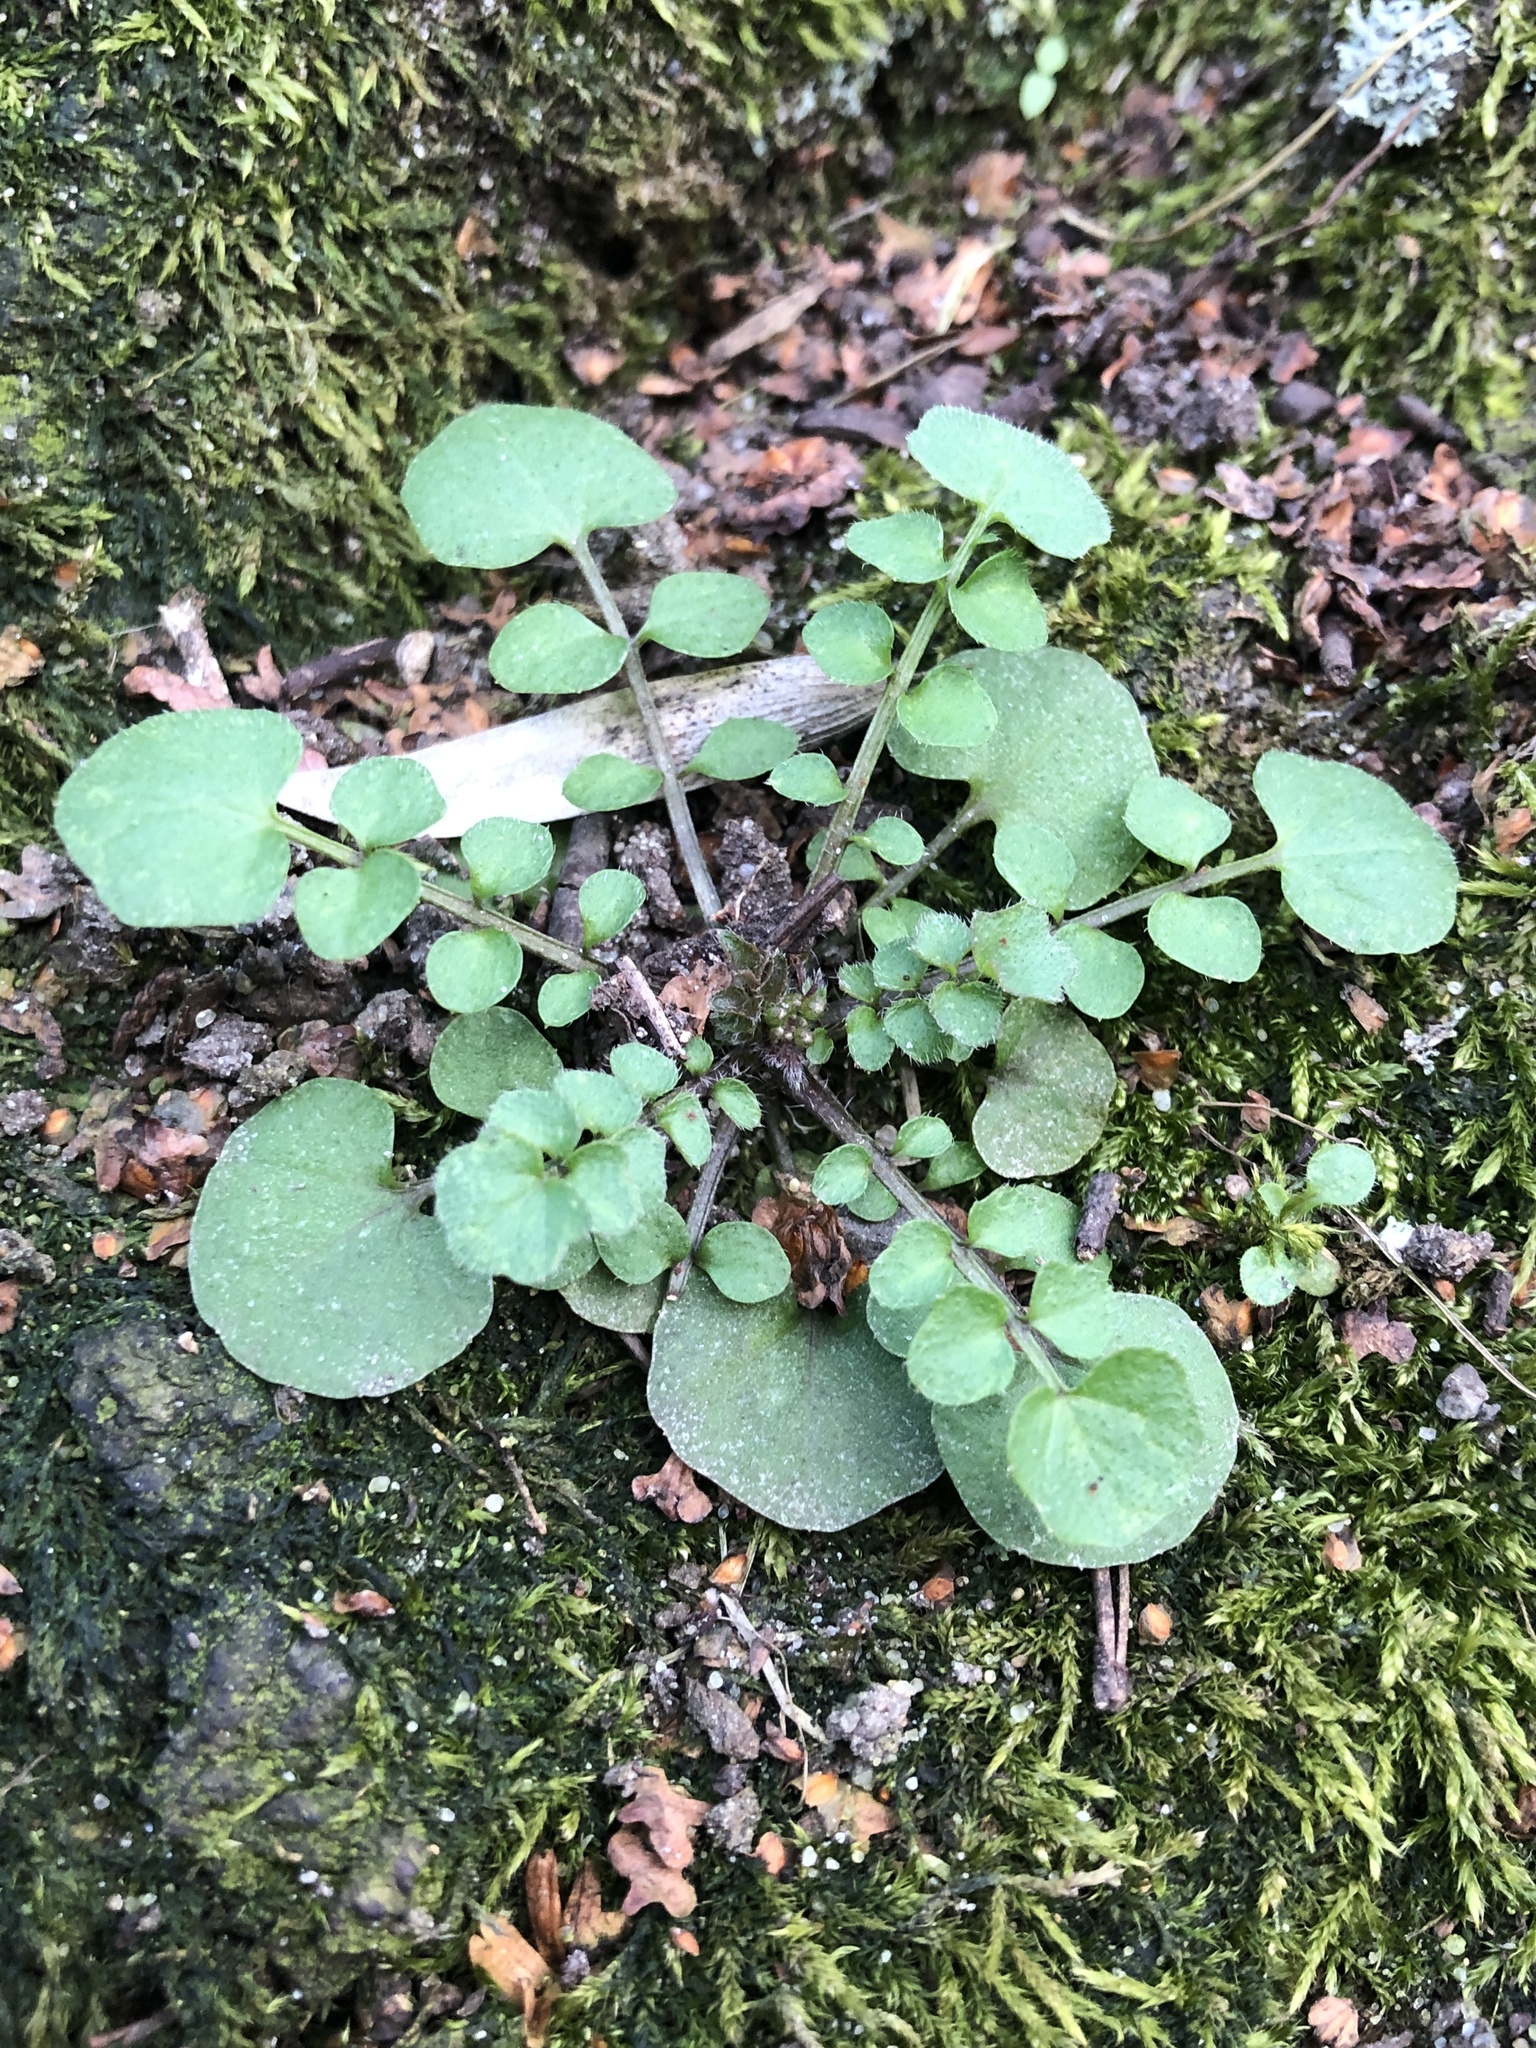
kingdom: Plantae
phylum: Tracheophyta
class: Magnoliopsida
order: Brassicales
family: Brassicaceae
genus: Cardamine
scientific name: Cardamine hirsuta
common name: Hairy bittercress
